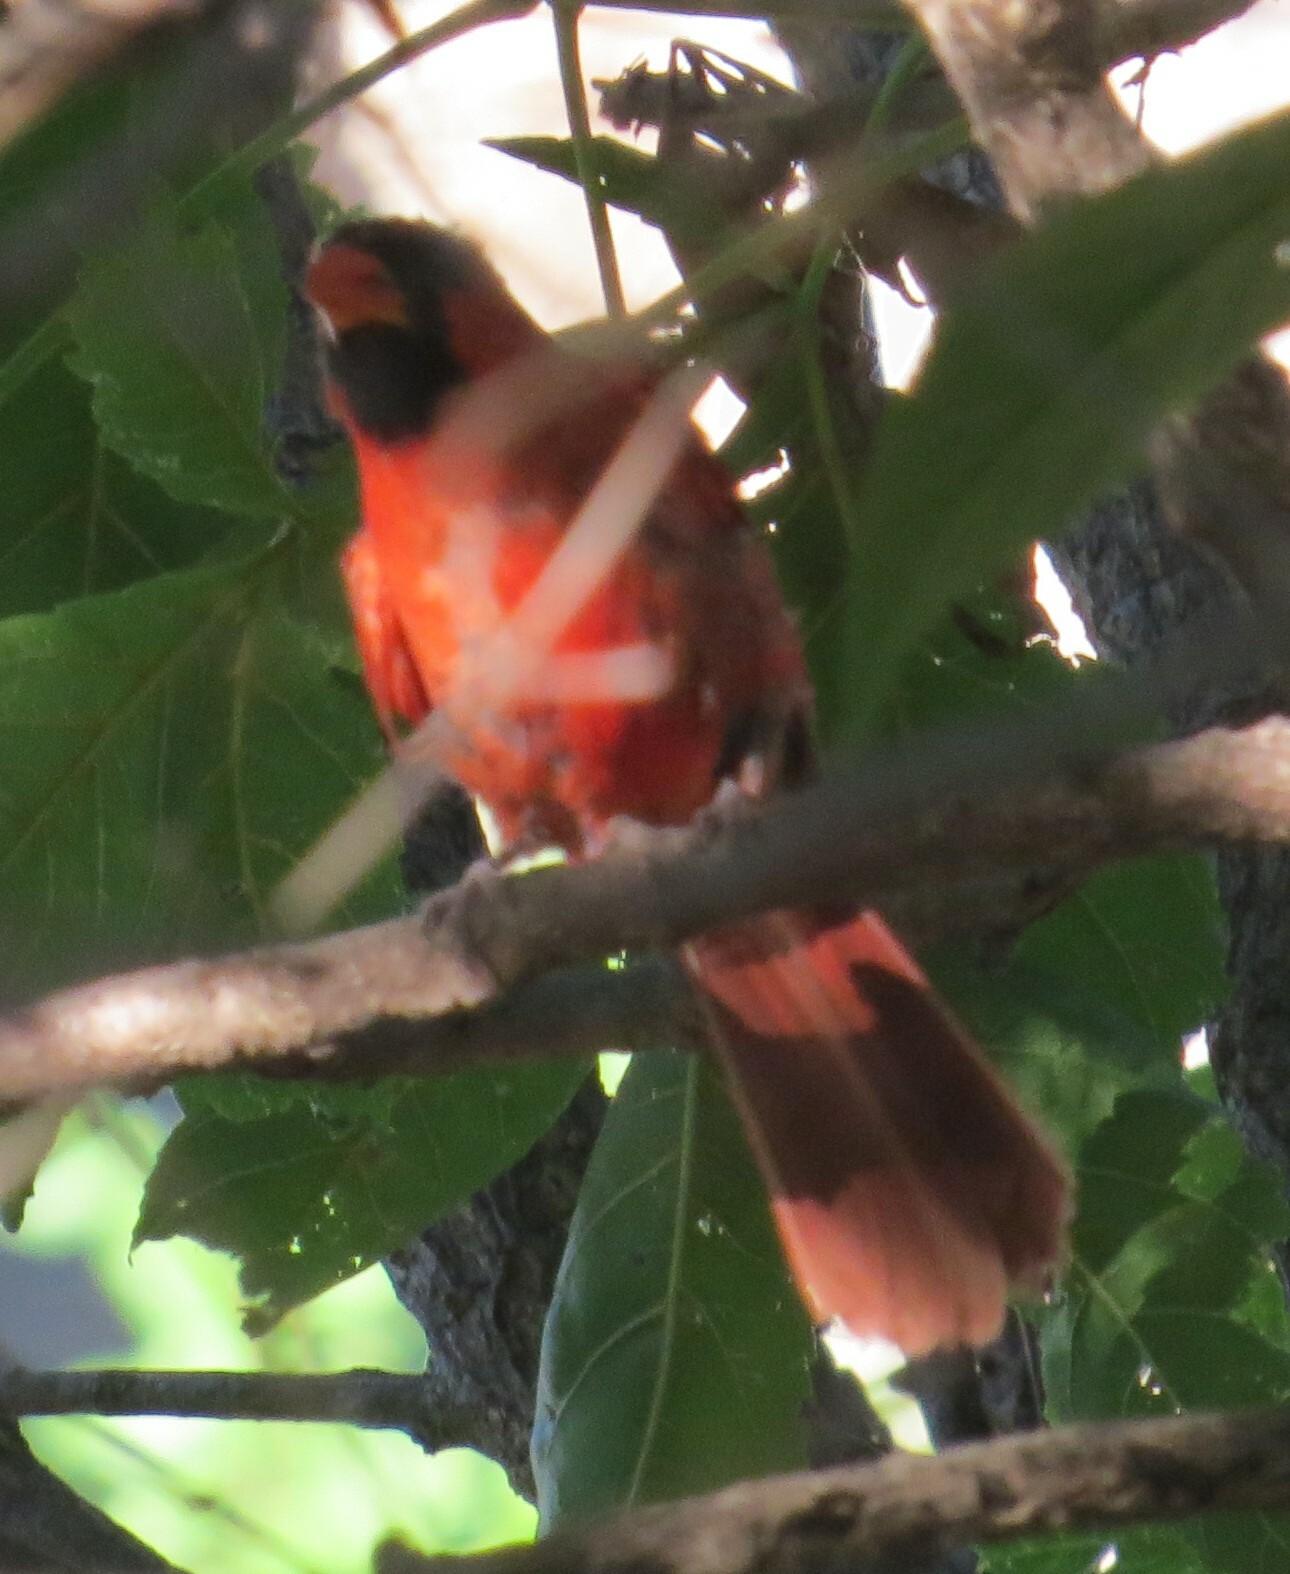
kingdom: Animalia
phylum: Chordata
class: Aves
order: Passeriformes
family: Cardinalidae
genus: Cardinalis
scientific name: Cardinalis cardinalis
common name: Northern cardinal
